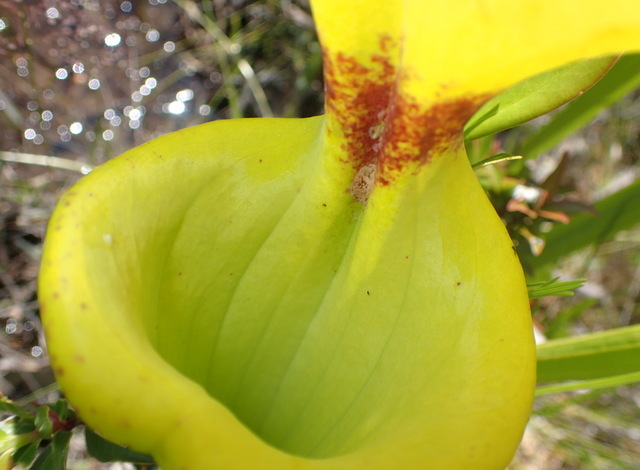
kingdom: Plantae
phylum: Tracheophyta
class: Magnoliopsida
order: Ericales
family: Sarraceniaceae
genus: Sarracenia
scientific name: Sarracenia flava
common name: Trumpets
